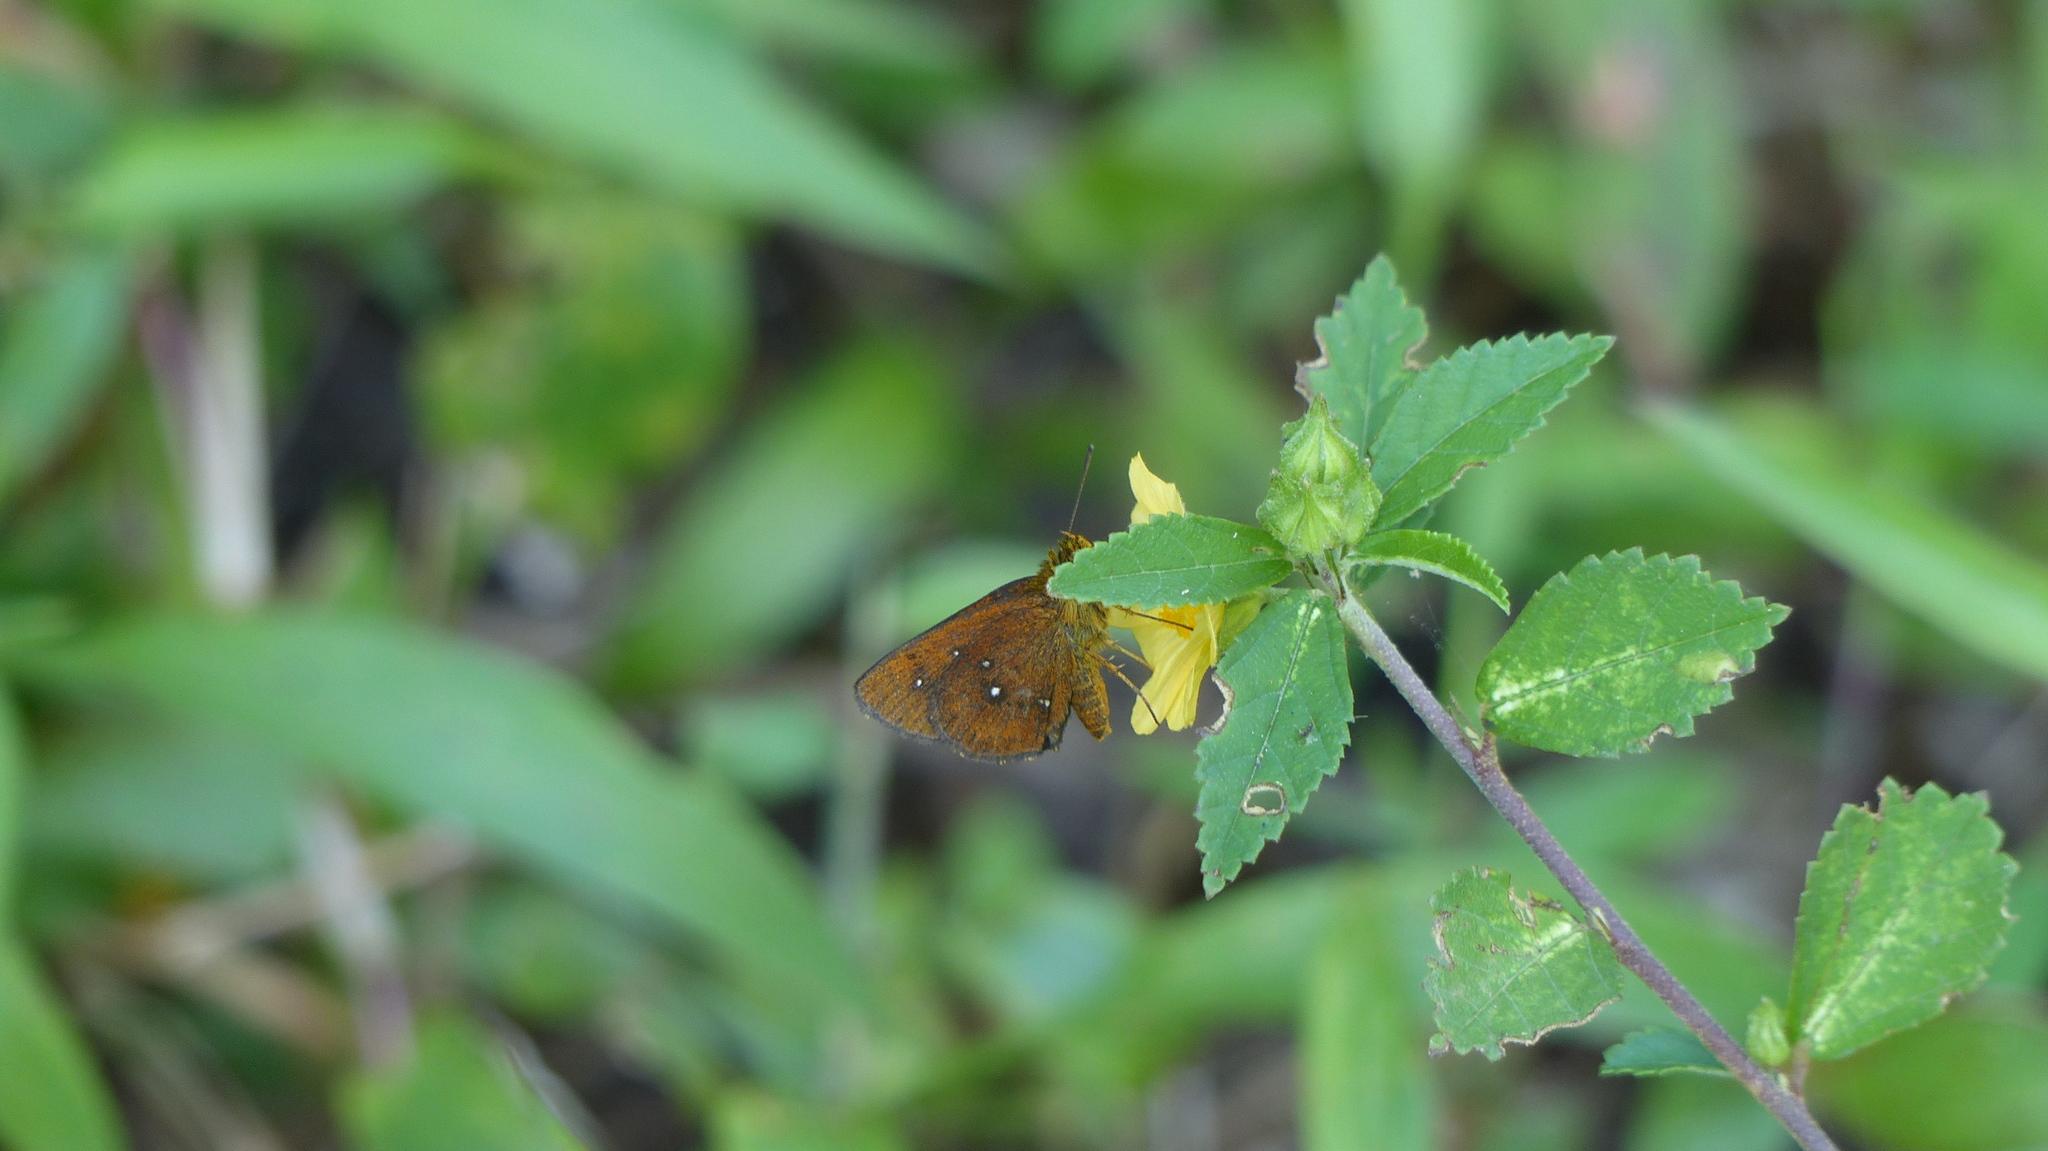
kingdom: Animalia
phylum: Arthropoda
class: Insecta
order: Lepidoptera
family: Hesperiidae
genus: Iambrix
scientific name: Iambrix salsala
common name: Chestnut bob
